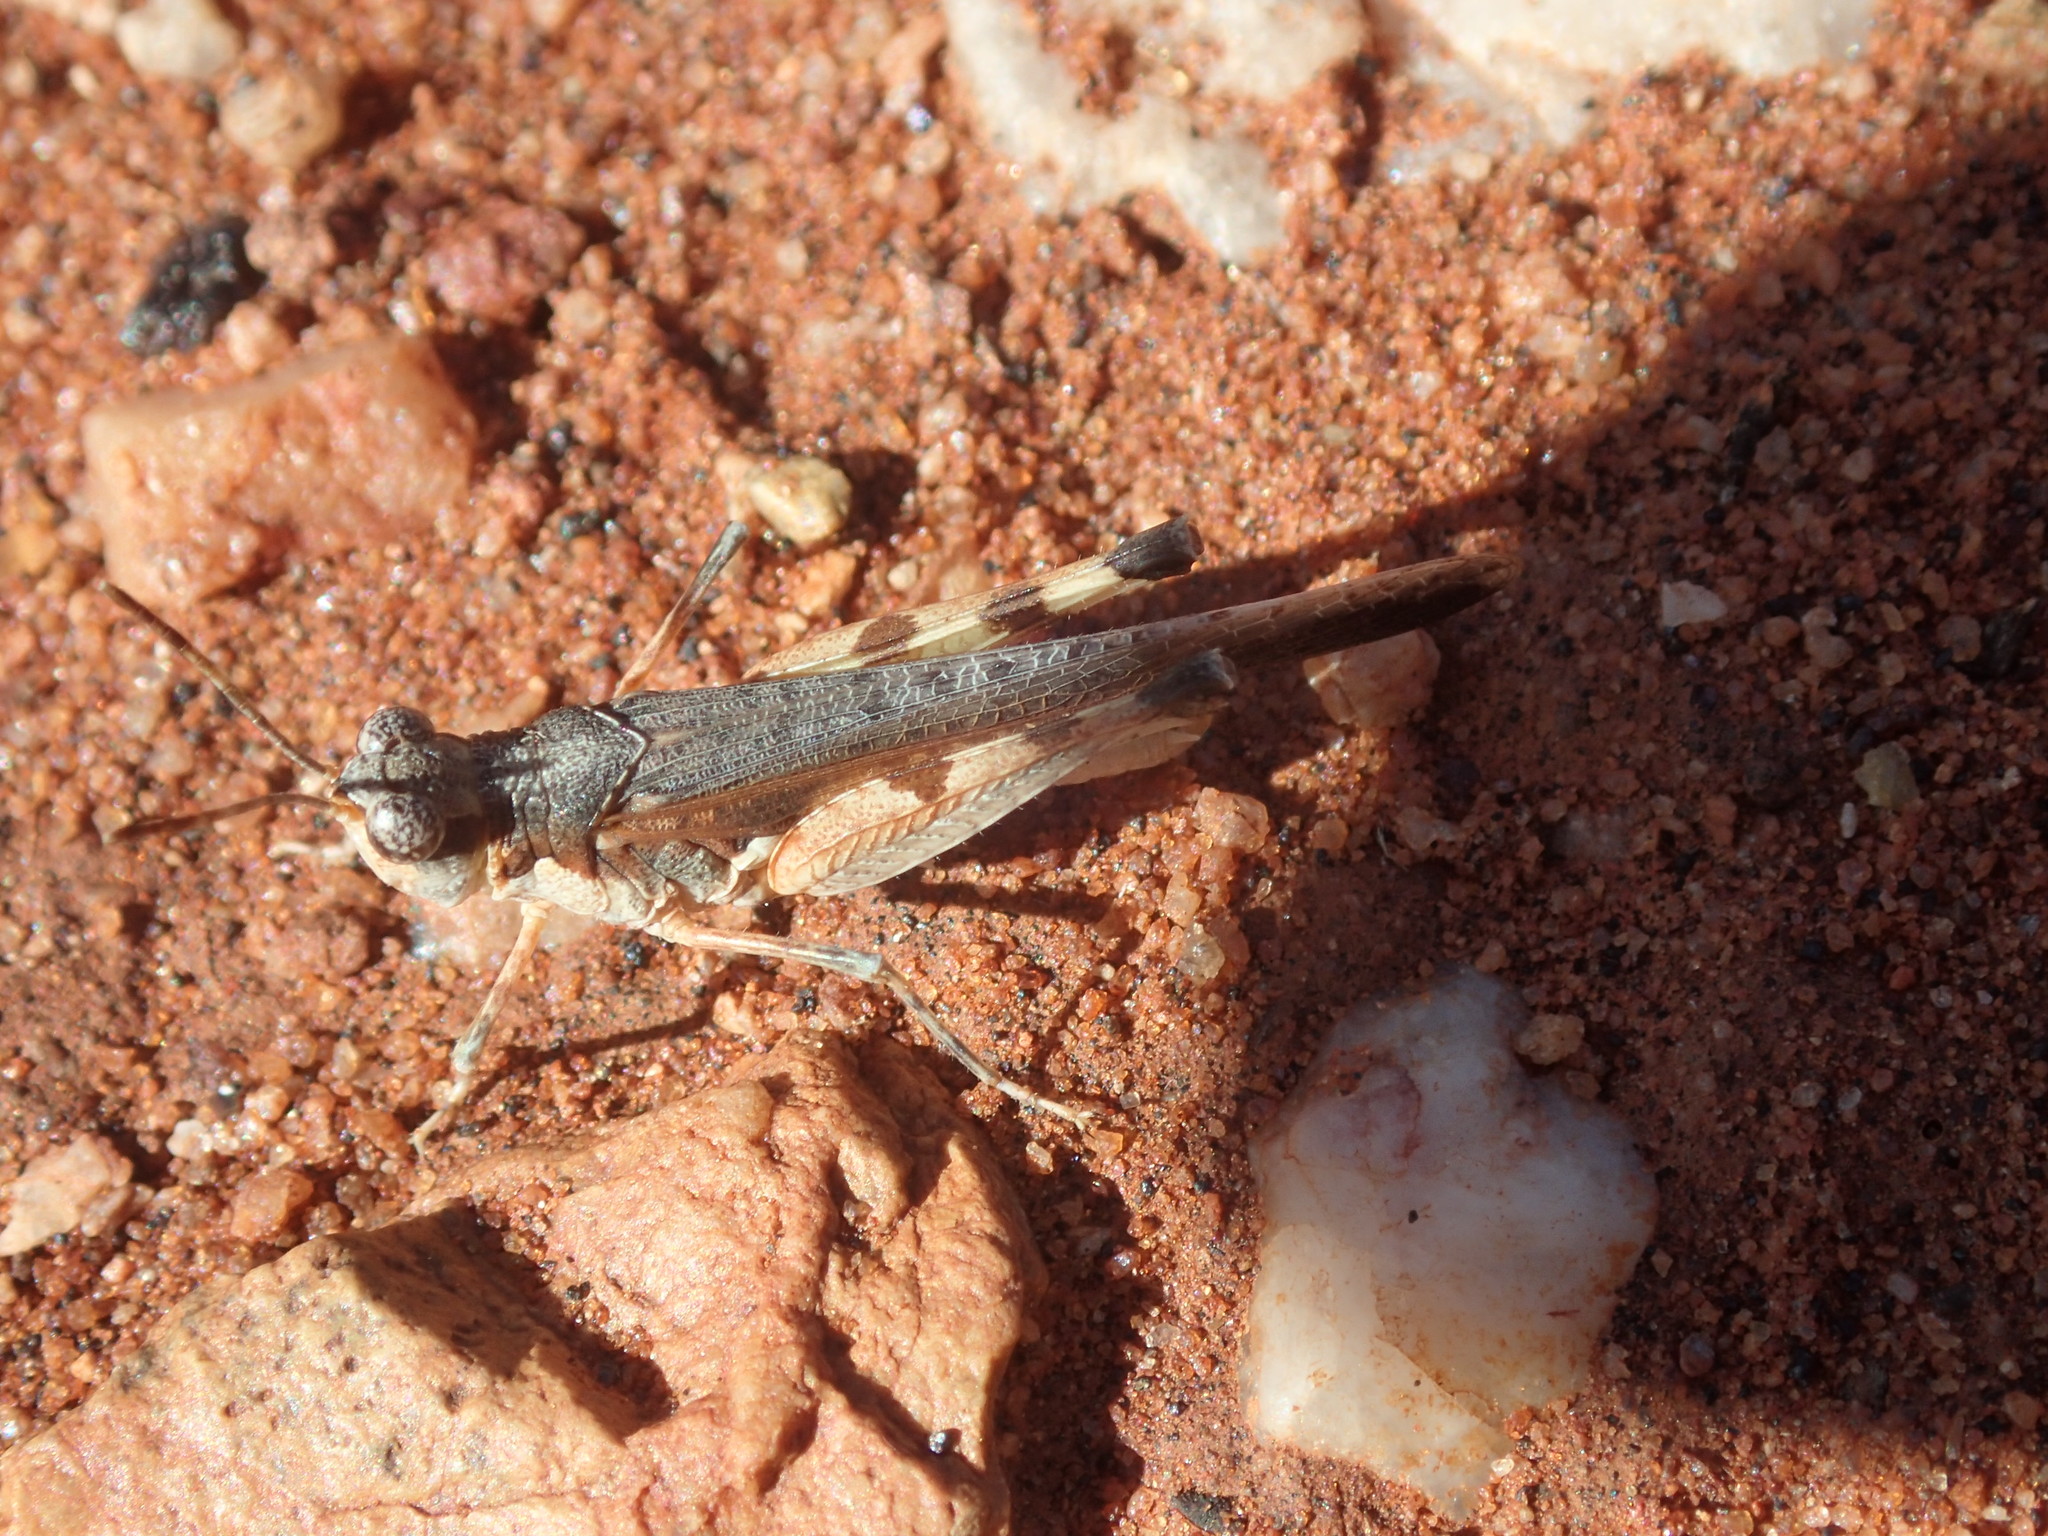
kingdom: Animalia
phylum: Arthropoda
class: Insecta
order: Orthoptera
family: Acrididae
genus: Pycnostictus
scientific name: Pycnostictus seriatus
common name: Common bandwing
